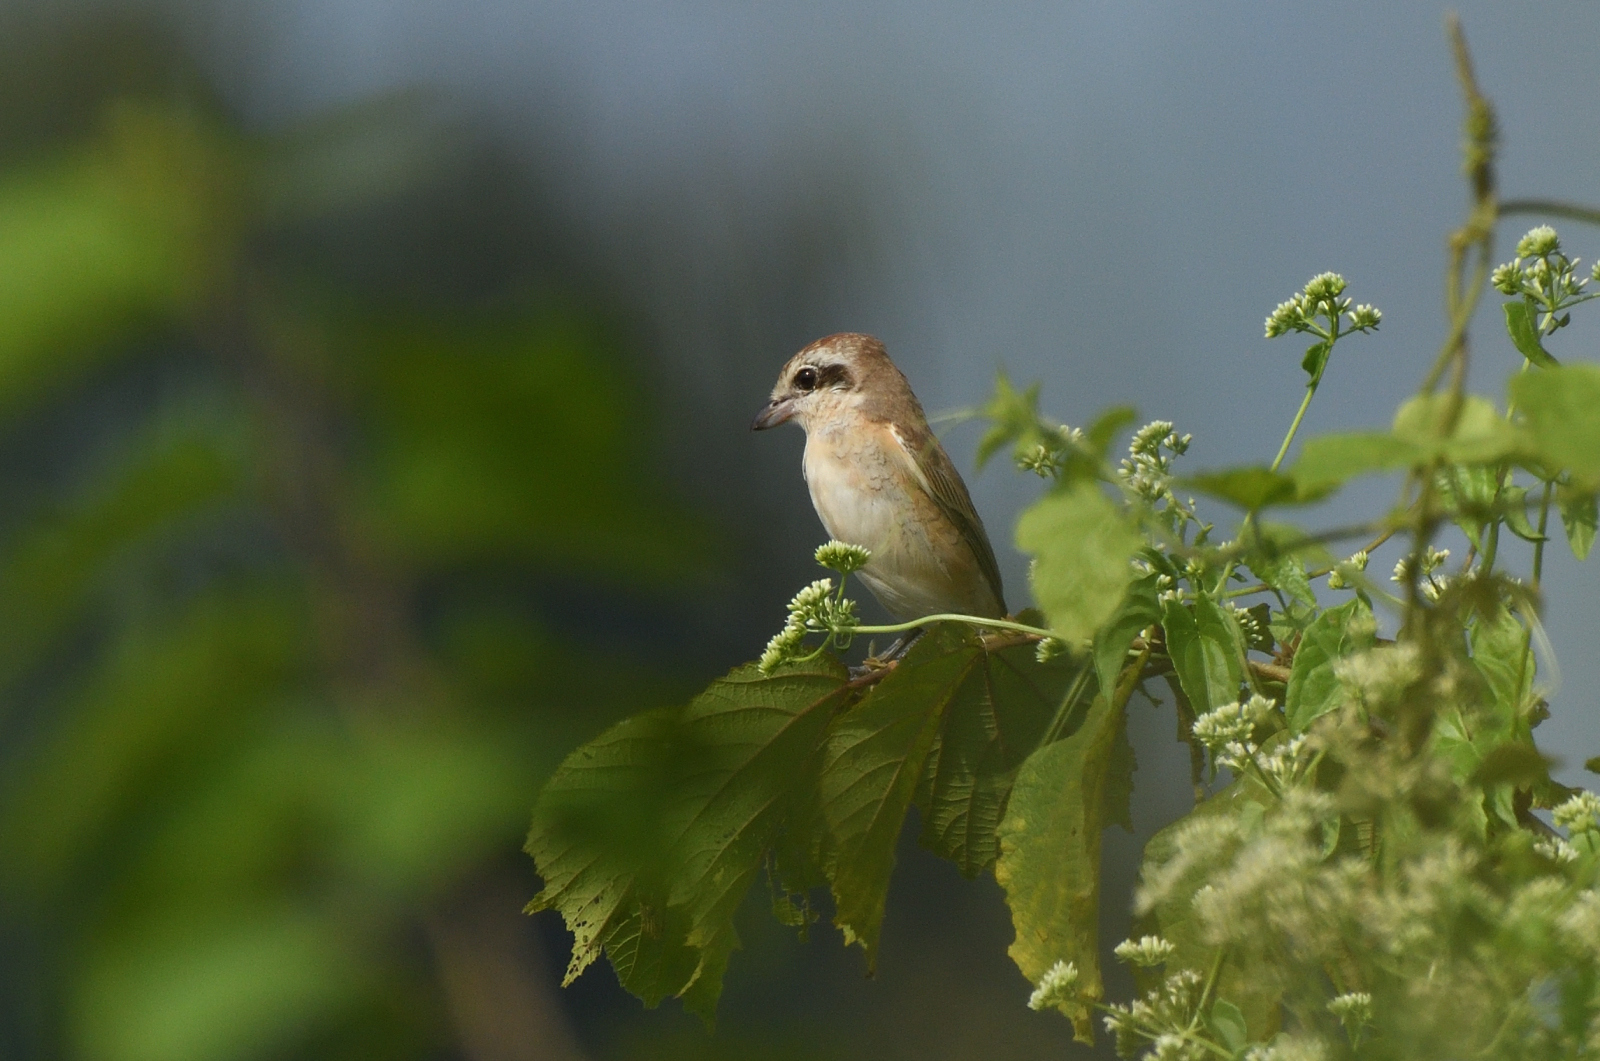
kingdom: Animalia
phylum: Chordata
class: Aves
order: Passeriformes
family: Laniidae
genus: Lanius
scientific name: Lanius cristatus
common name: Brown shrike
